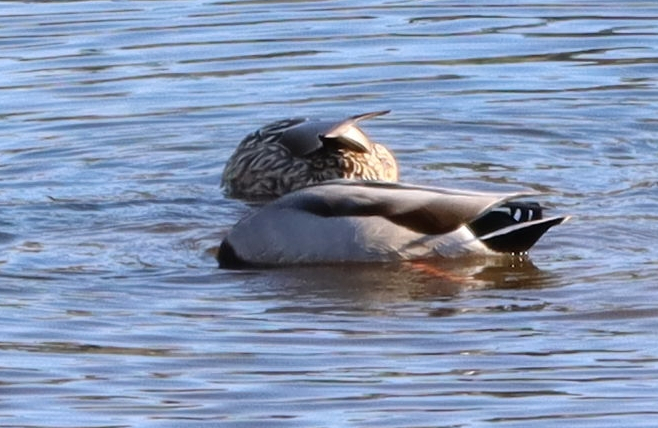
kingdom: Animalia
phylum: Chordata
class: Aves
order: Anseriformes
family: Anatidae
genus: Anas
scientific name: Anas platyrhynchos
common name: Mallard
